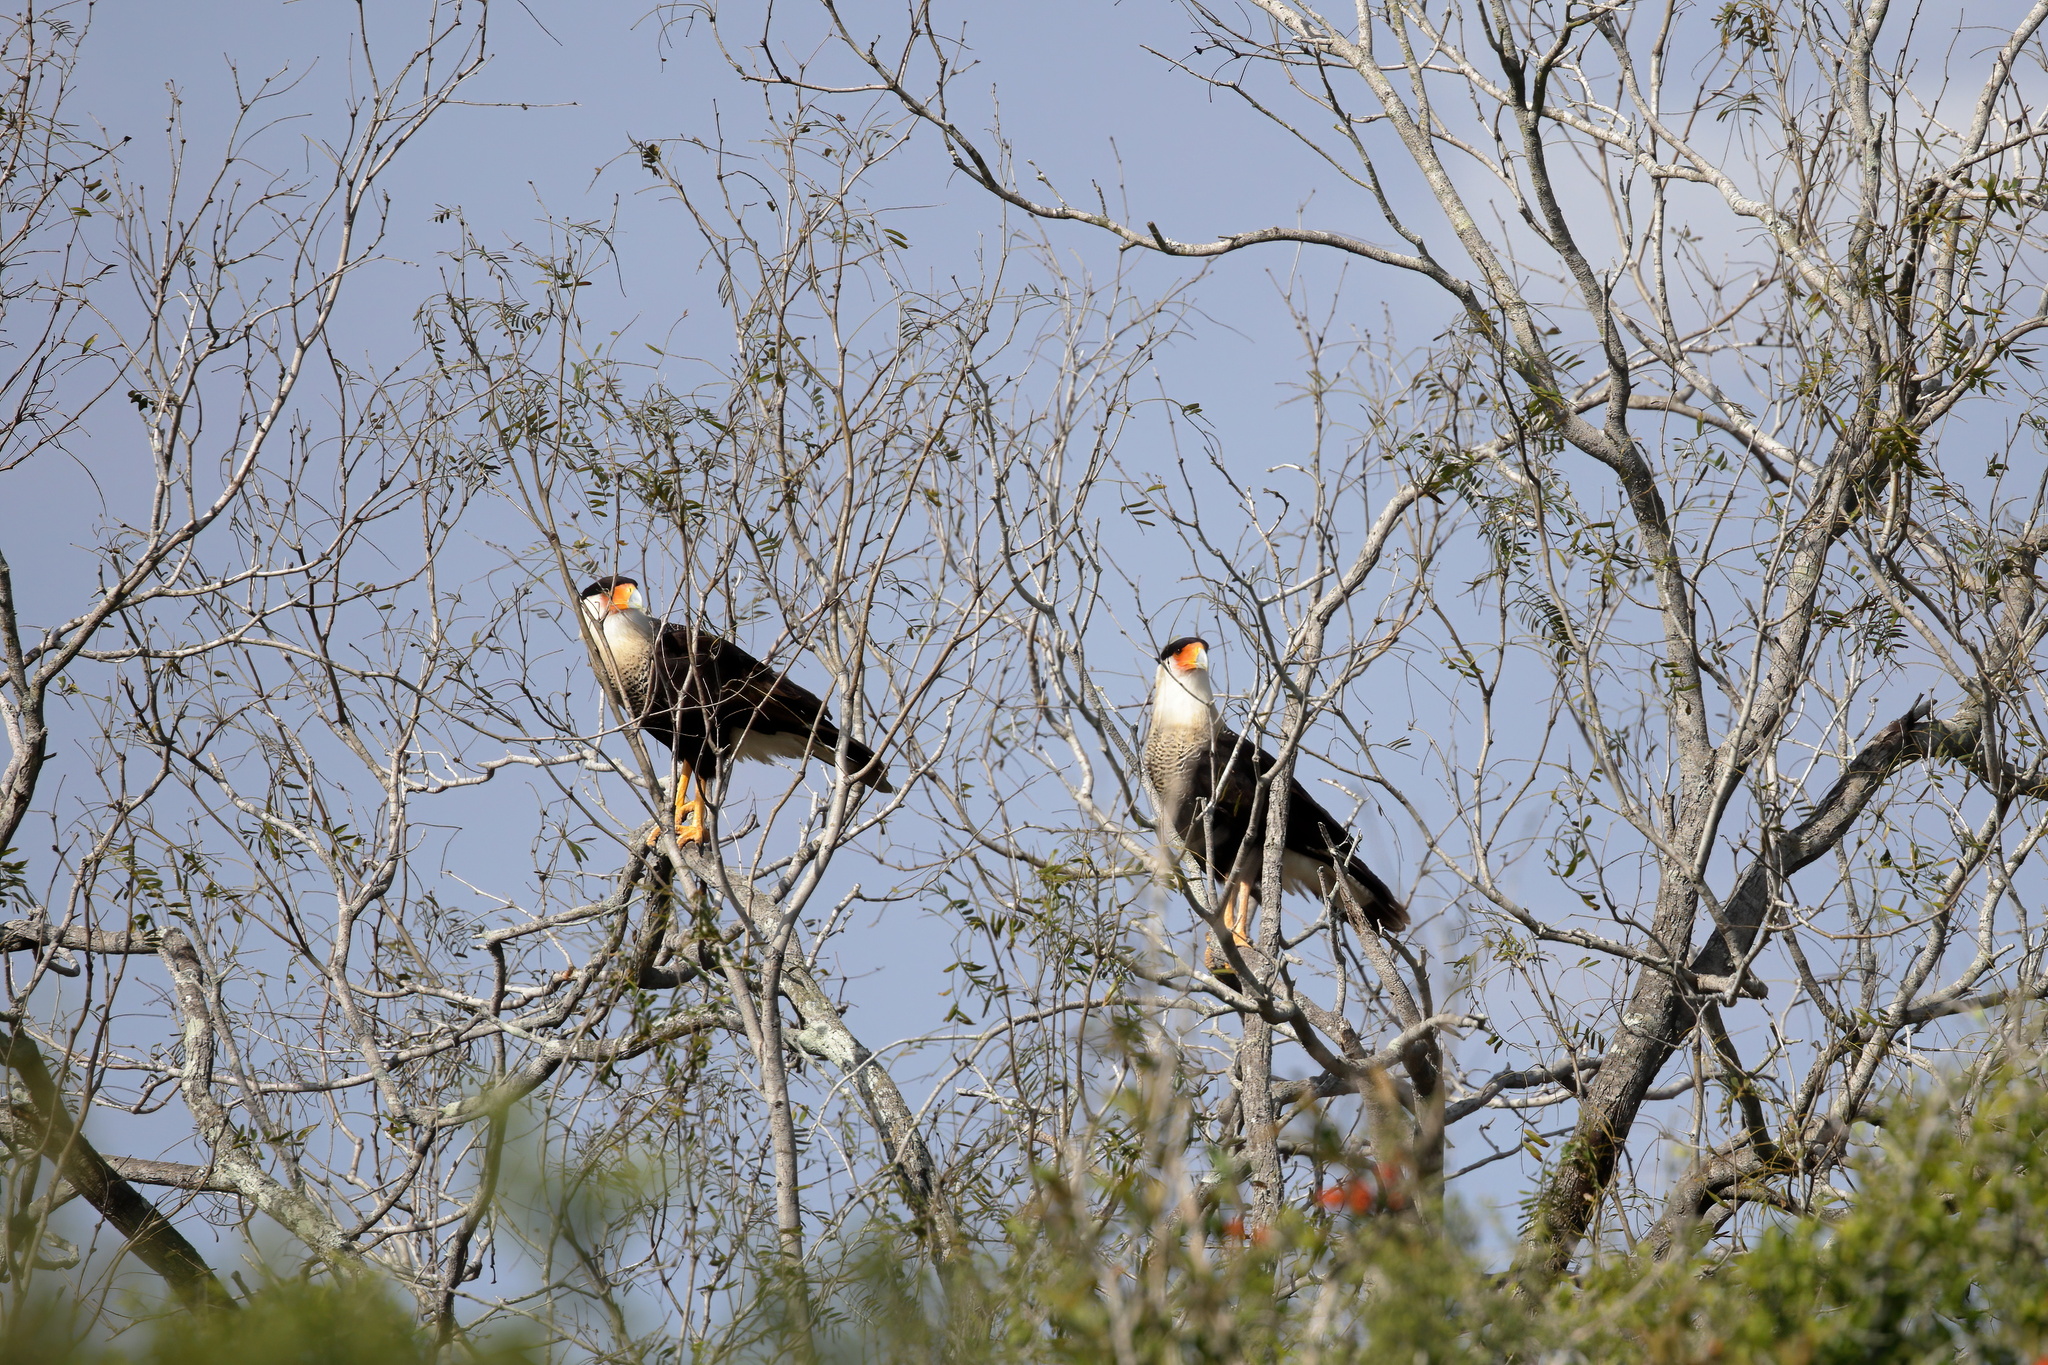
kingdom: Animalia
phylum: Chordata
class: Aves
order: Falconiformes
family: Falconidae
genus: Caracara
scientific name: Caracara plancus
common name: Southern caracara
